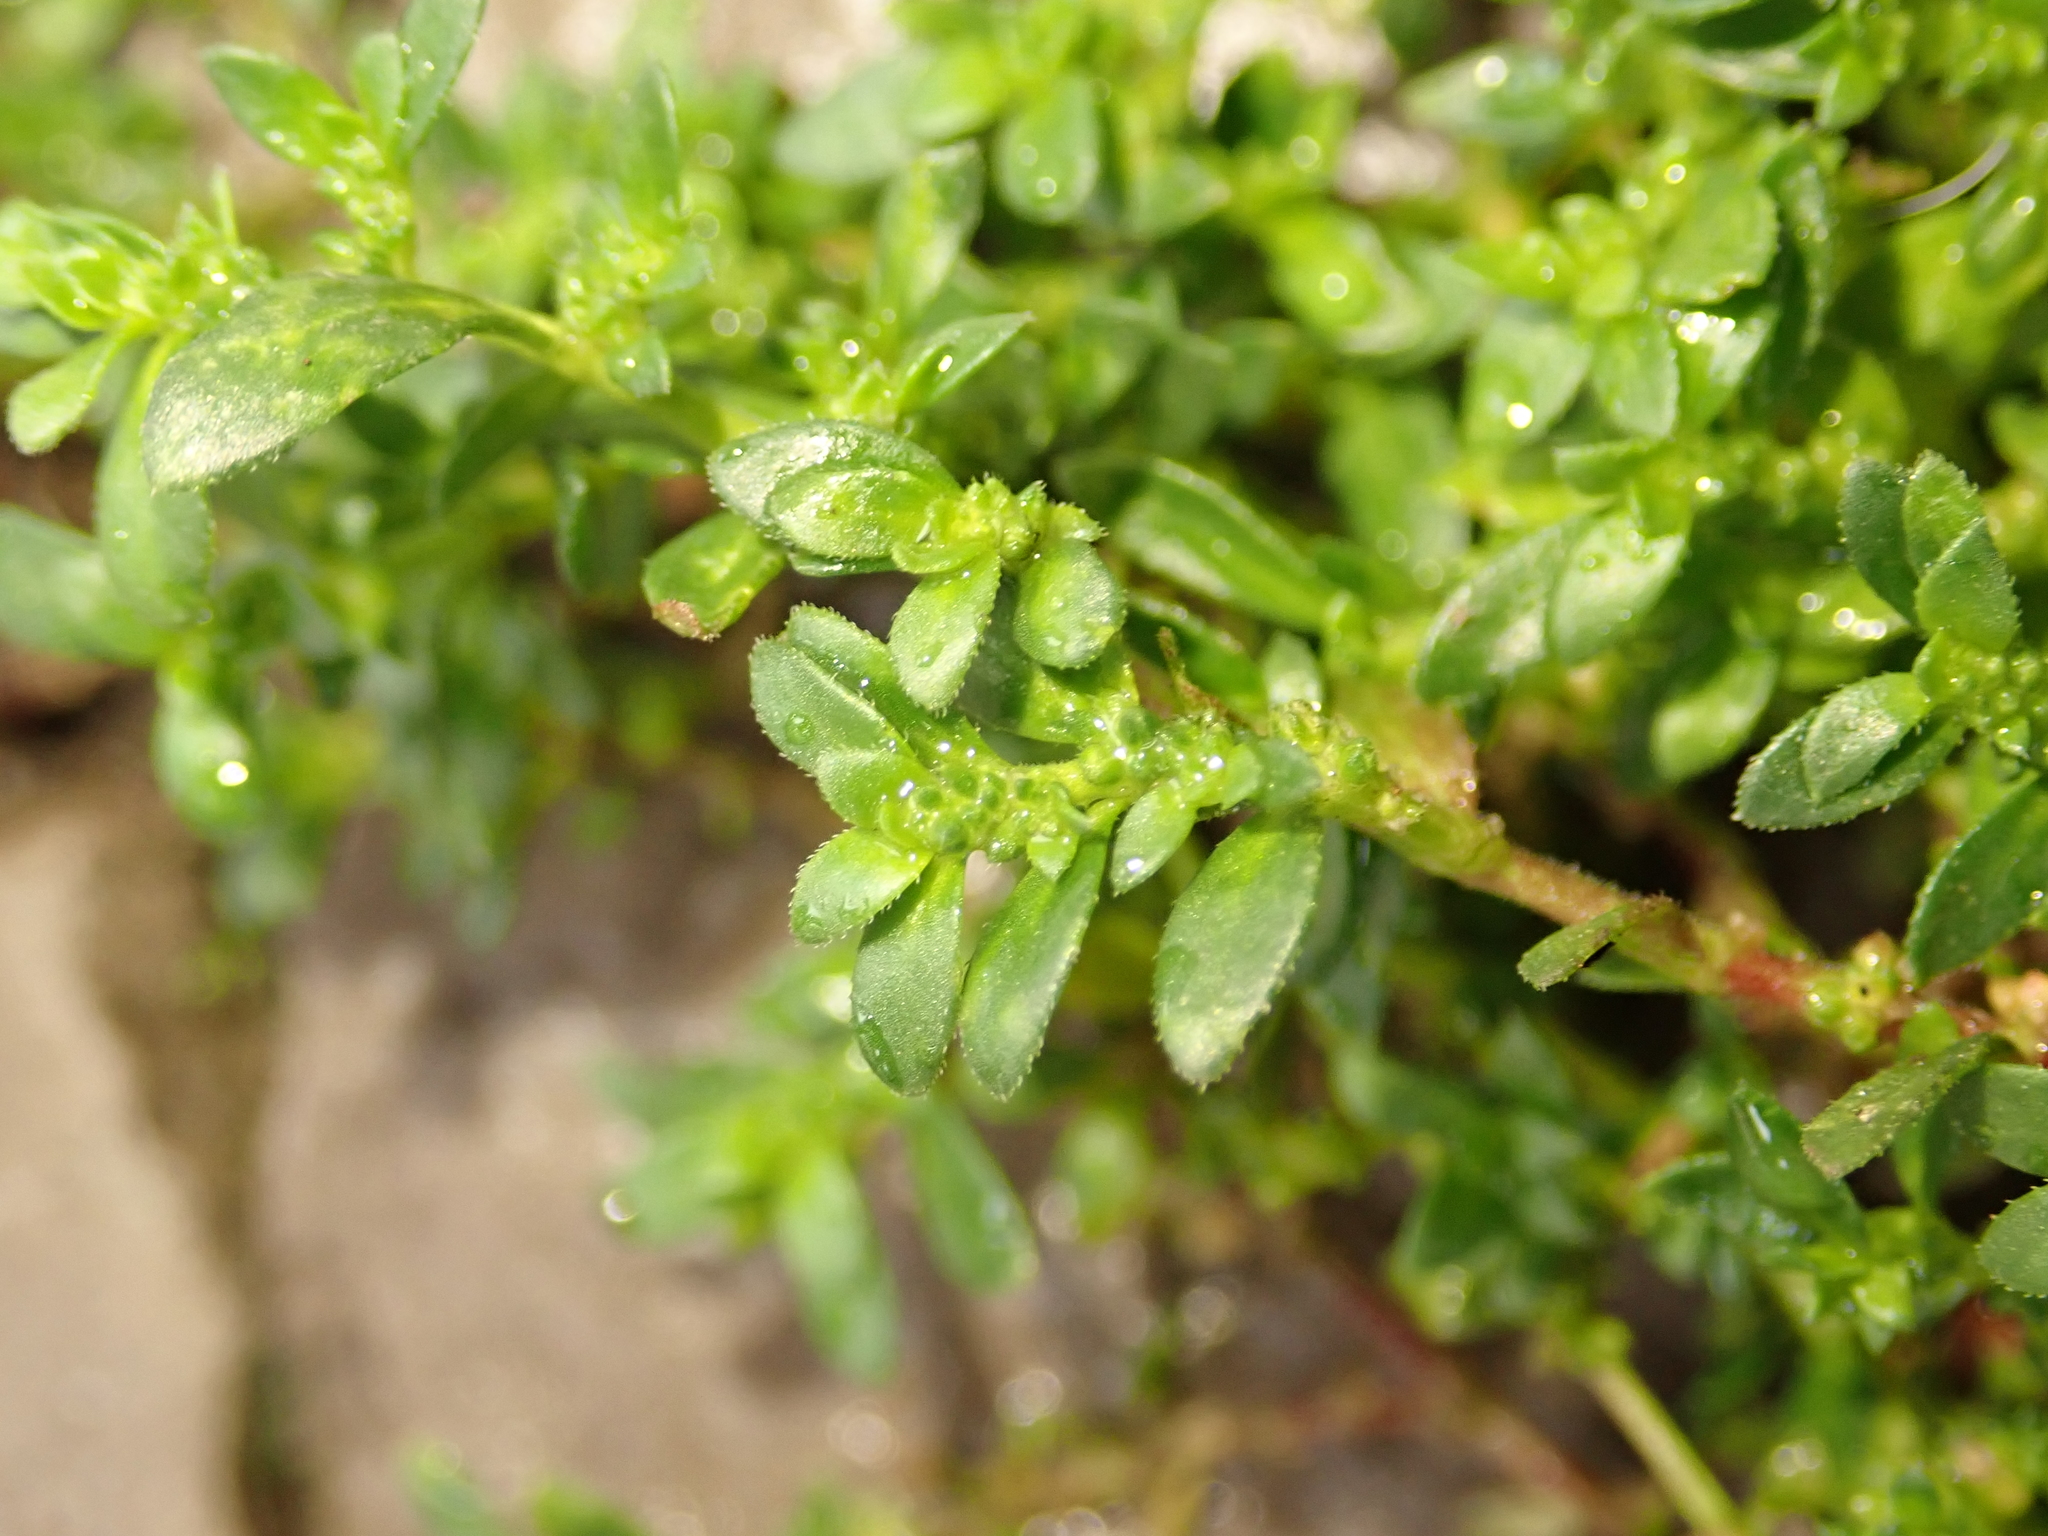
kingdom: Plantae
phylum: Tracheophyta
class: Magnoliopsida
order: Caryophyllales
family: Caryophyllaceae
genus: Herniaria
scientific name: Herniaria hirsuta
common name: Hairy rupturewort
